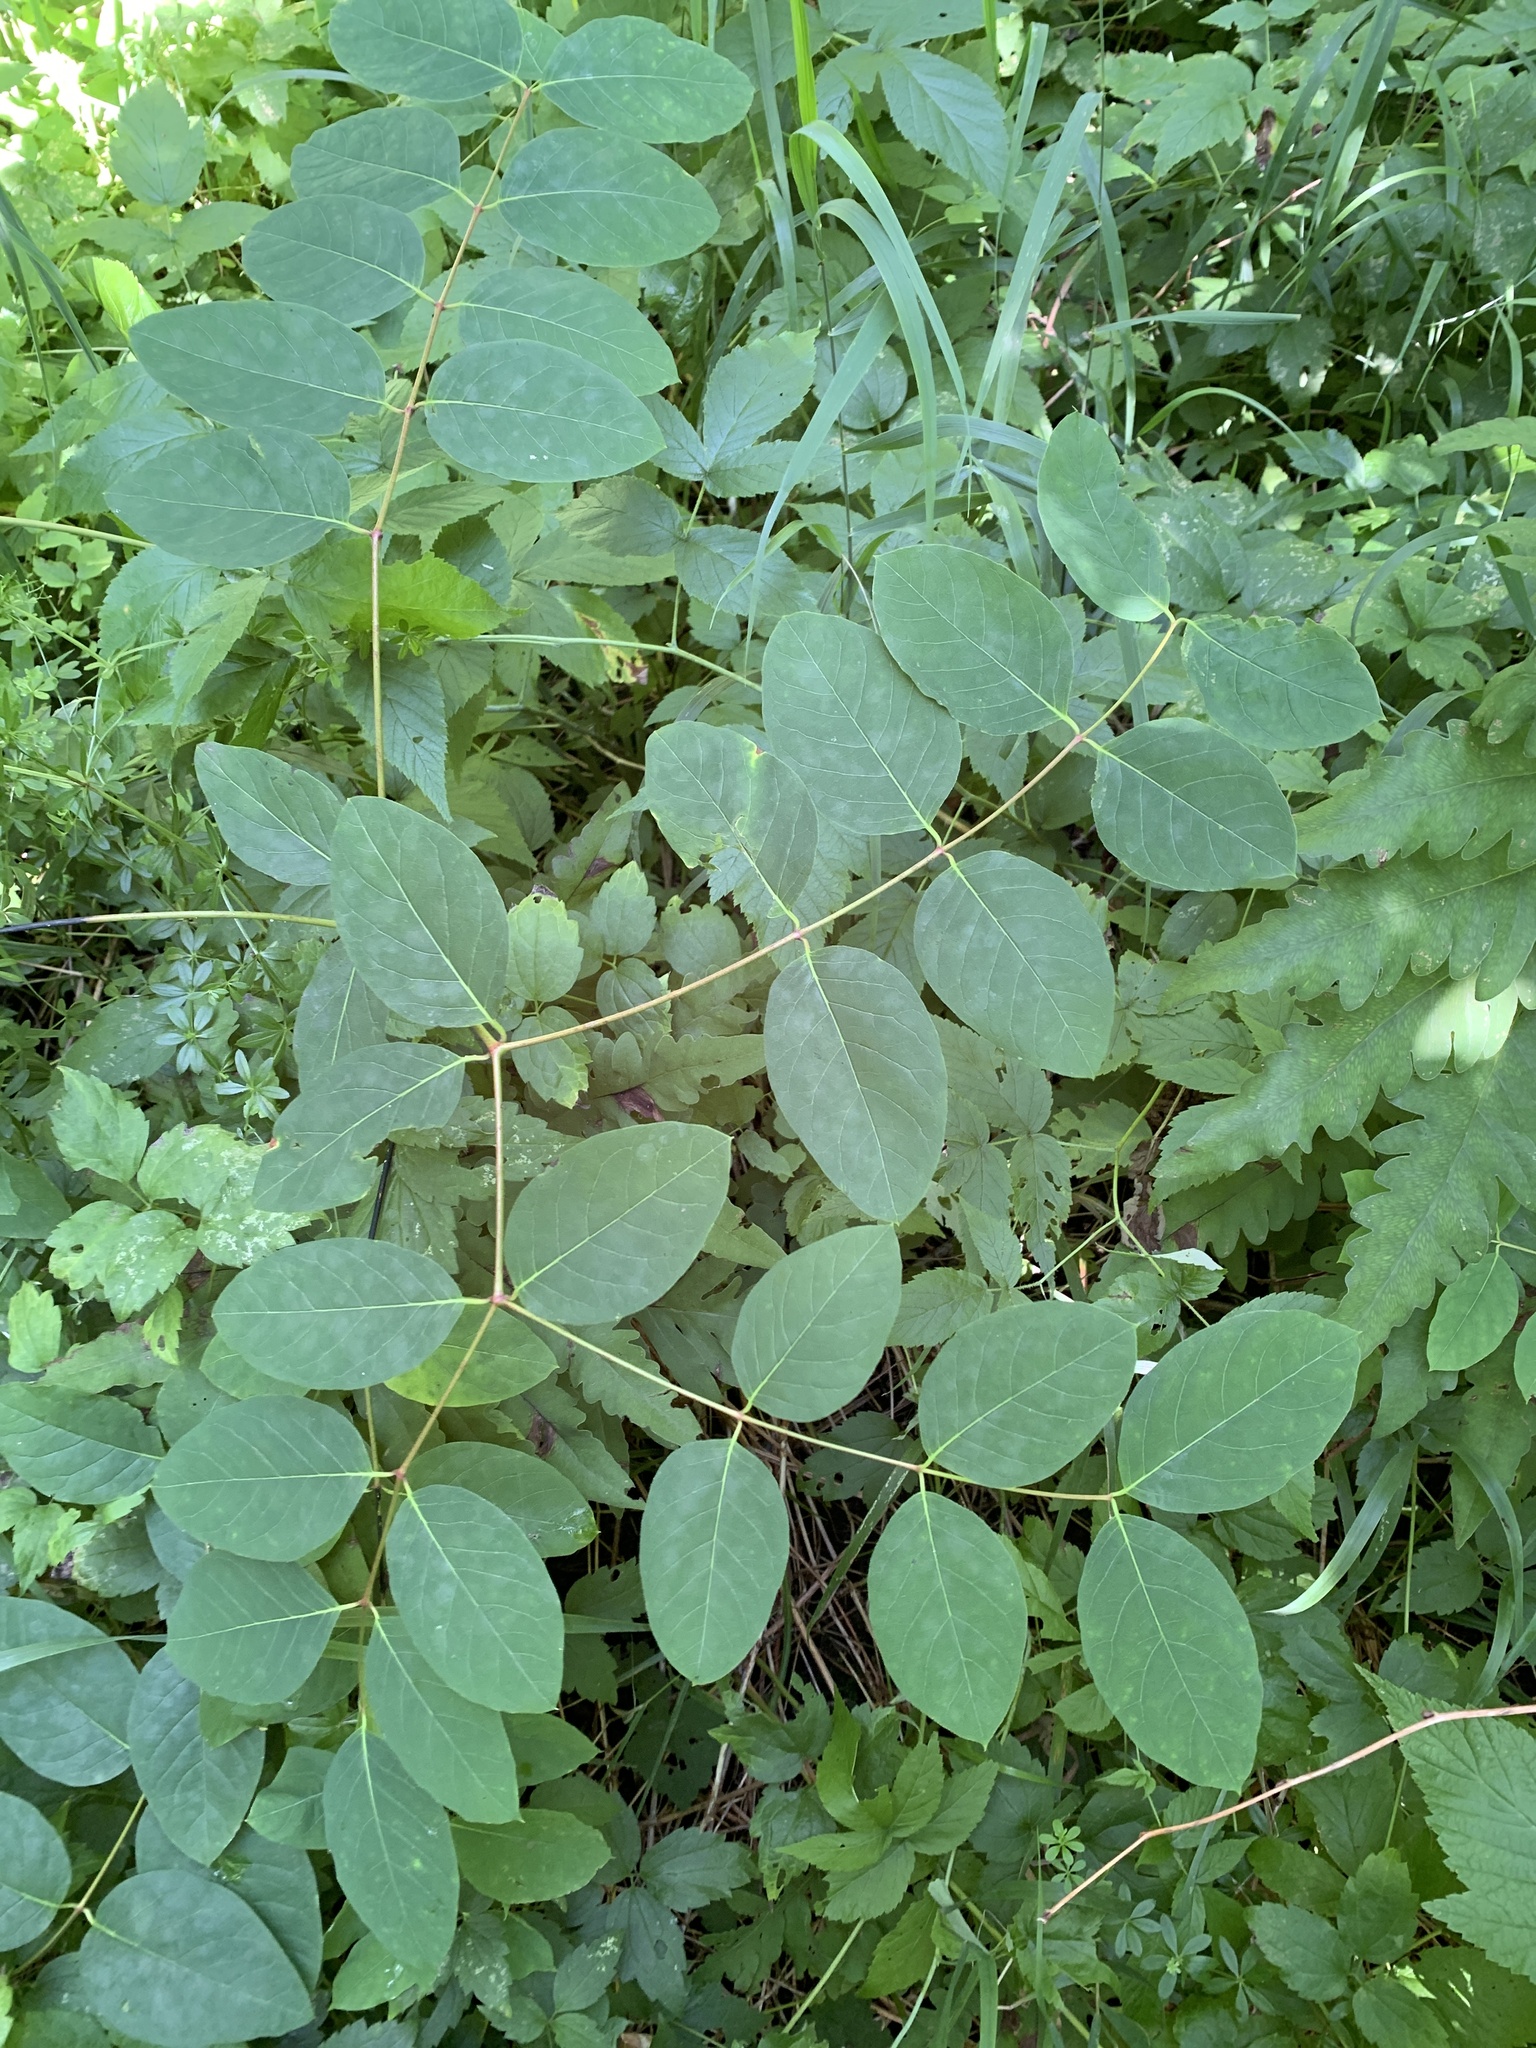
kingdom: Plantae
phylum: Tracheophyta
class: Magnoliopsida
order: Gentianales
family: Apocynaceae
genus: Apocynum
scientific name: Apocynum androsaemifolium
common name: Spreading dogbane
